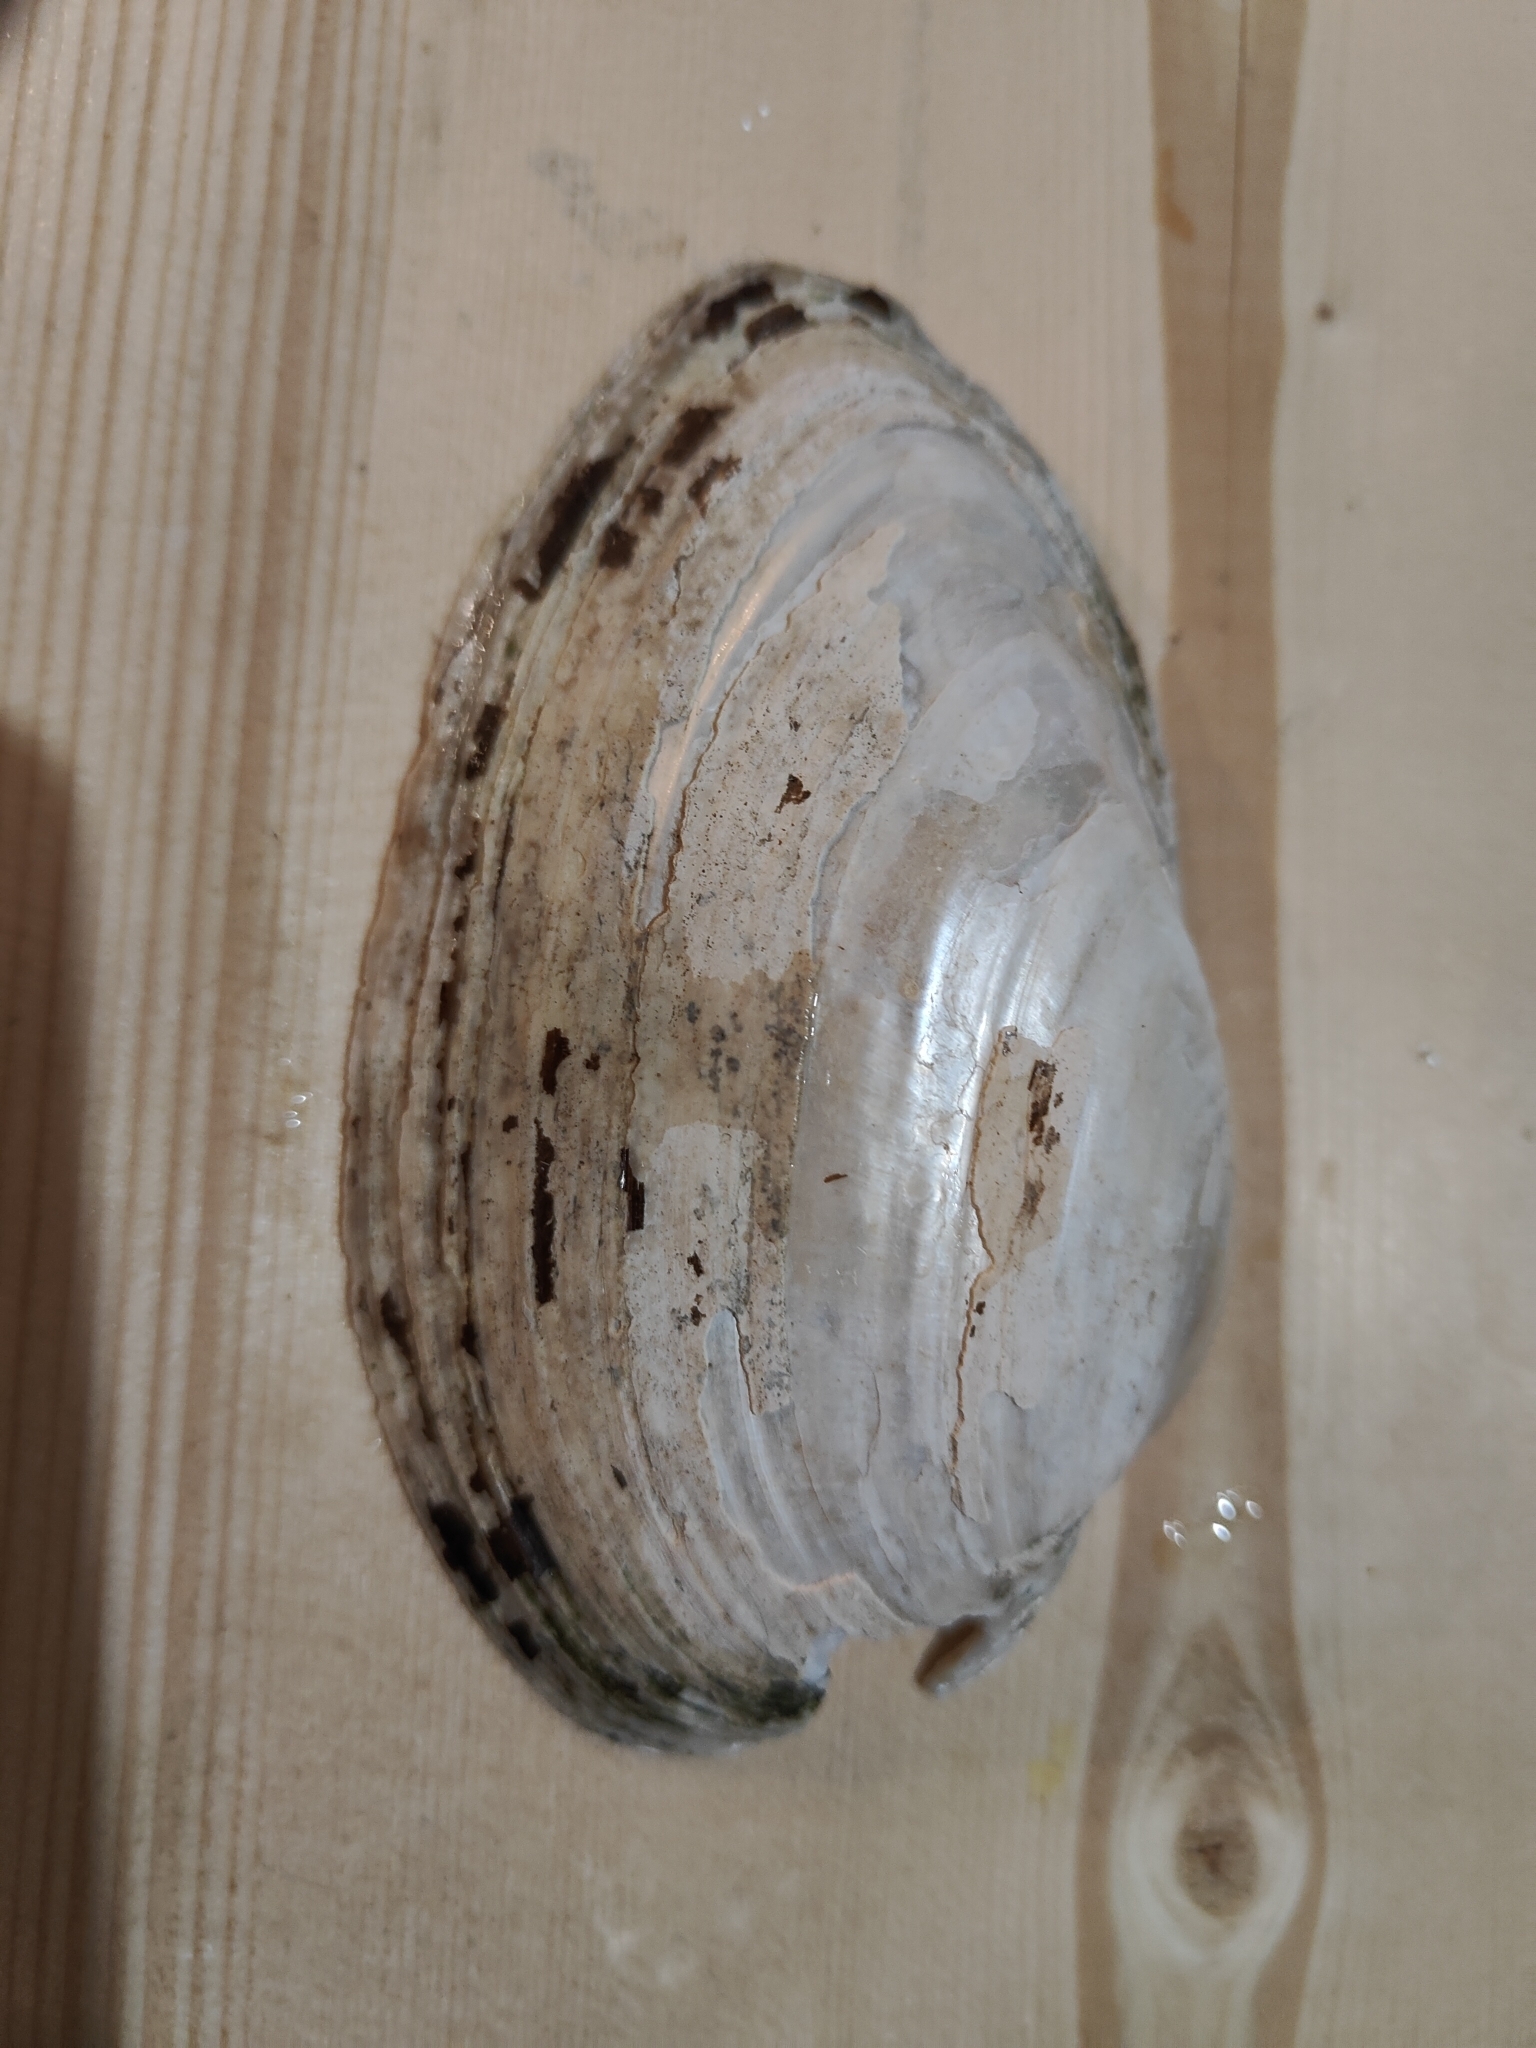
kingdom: Animalia
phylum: Mollusca
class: Bivalvia
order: Unionida
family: Unionidae
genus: Pyganodon
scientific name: Pyganodon grandis
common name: Giant floater
